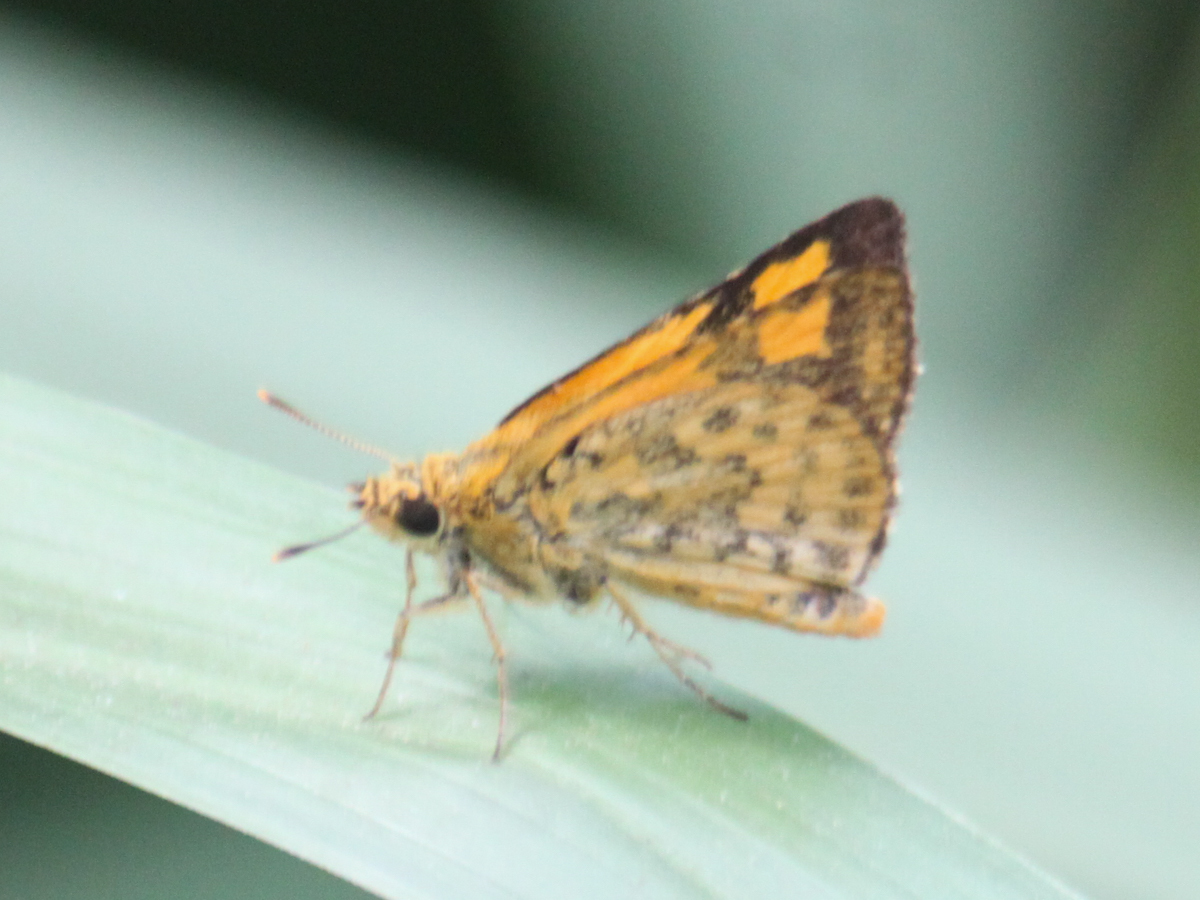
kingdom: Animalia
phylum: Arthropoda
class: Insecta
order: Lepidoptera
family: Hesperiidae
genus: Ampittia
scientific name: Ampittia dioscorides
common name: Common bush hopper
